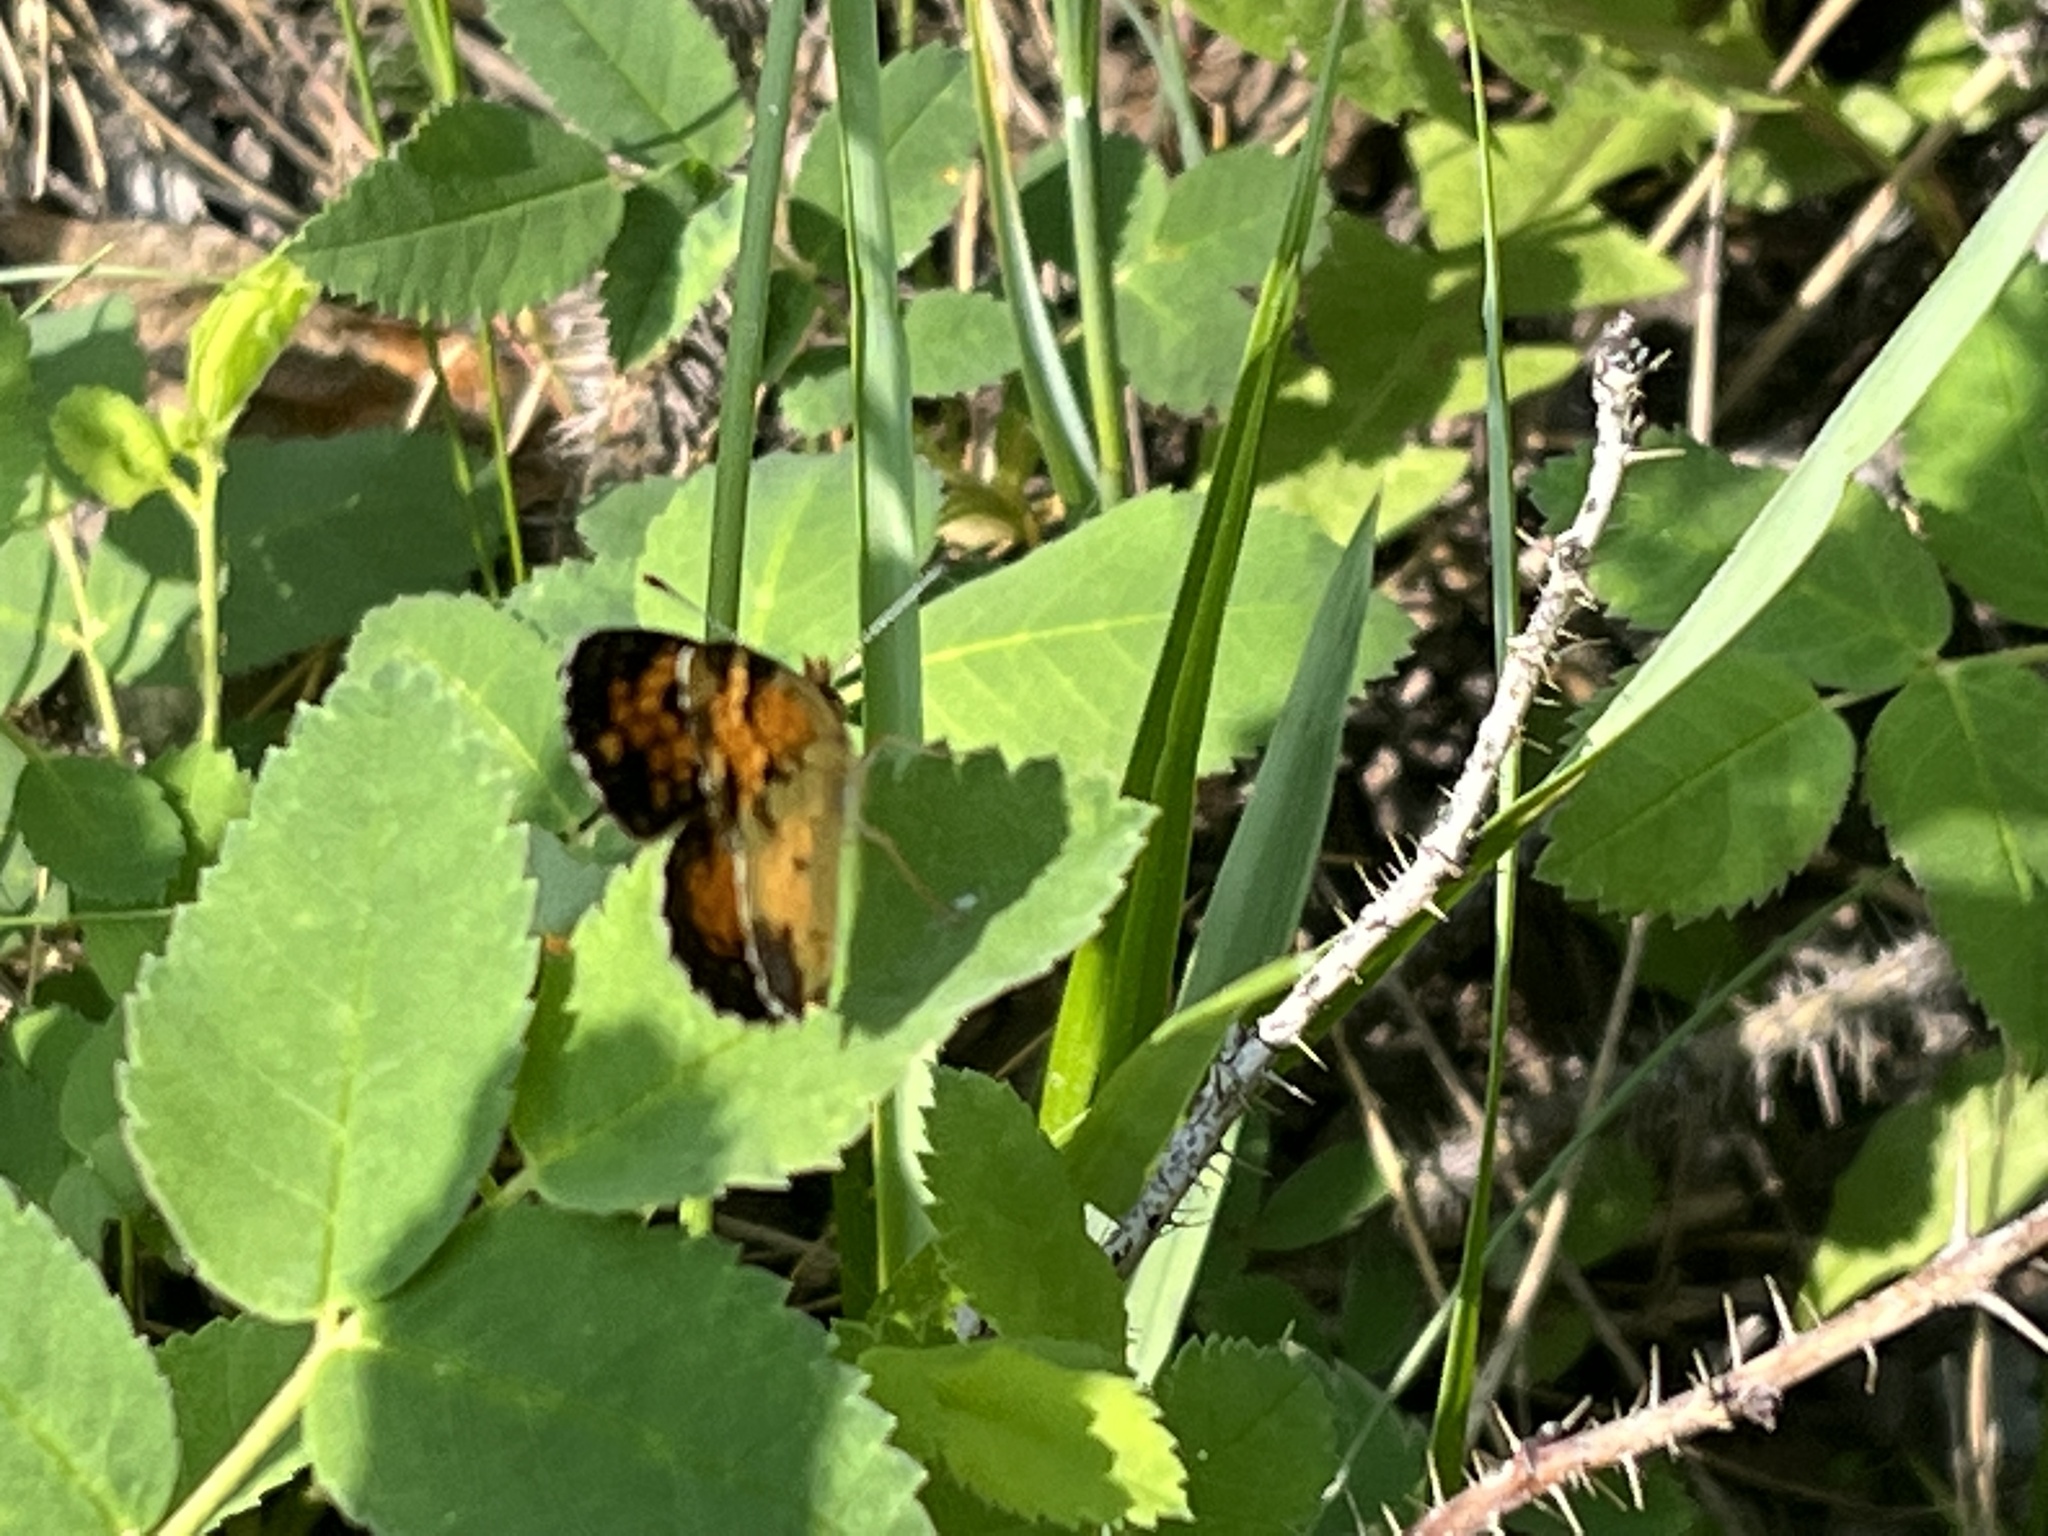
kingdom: Animalia
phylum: Arthropoda
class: Insecta
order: Lepidoptera
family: Nymphalidae
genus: Phyciodes
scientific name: Phyciodes tharos
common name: Pearl crescent
